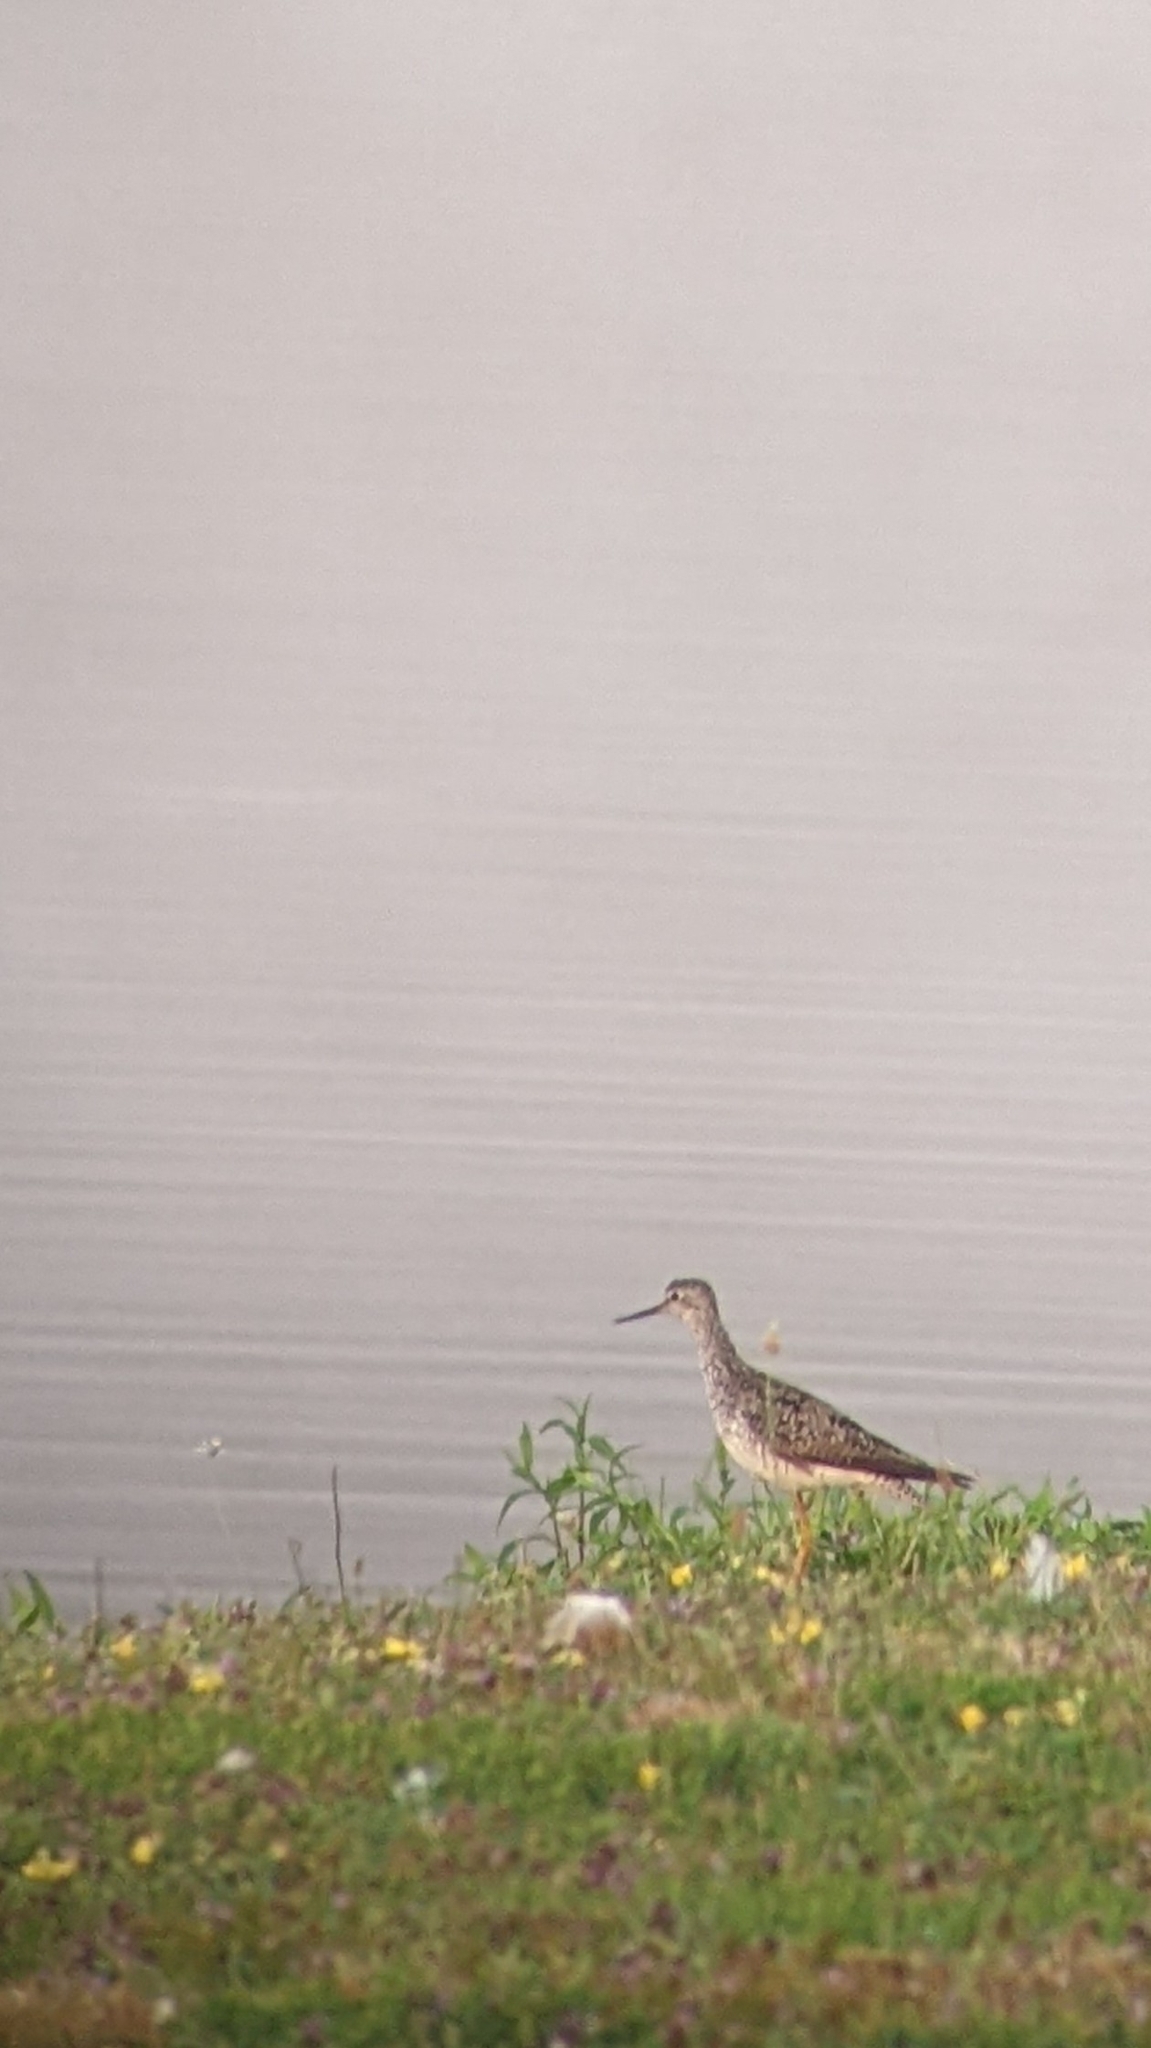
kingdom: Animalia
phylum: Chordata
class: Aves
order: Charadriiformes
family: Scolopacidae
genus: Tringa
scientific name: Tringa flavipes
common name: Lesser yellowlegs
